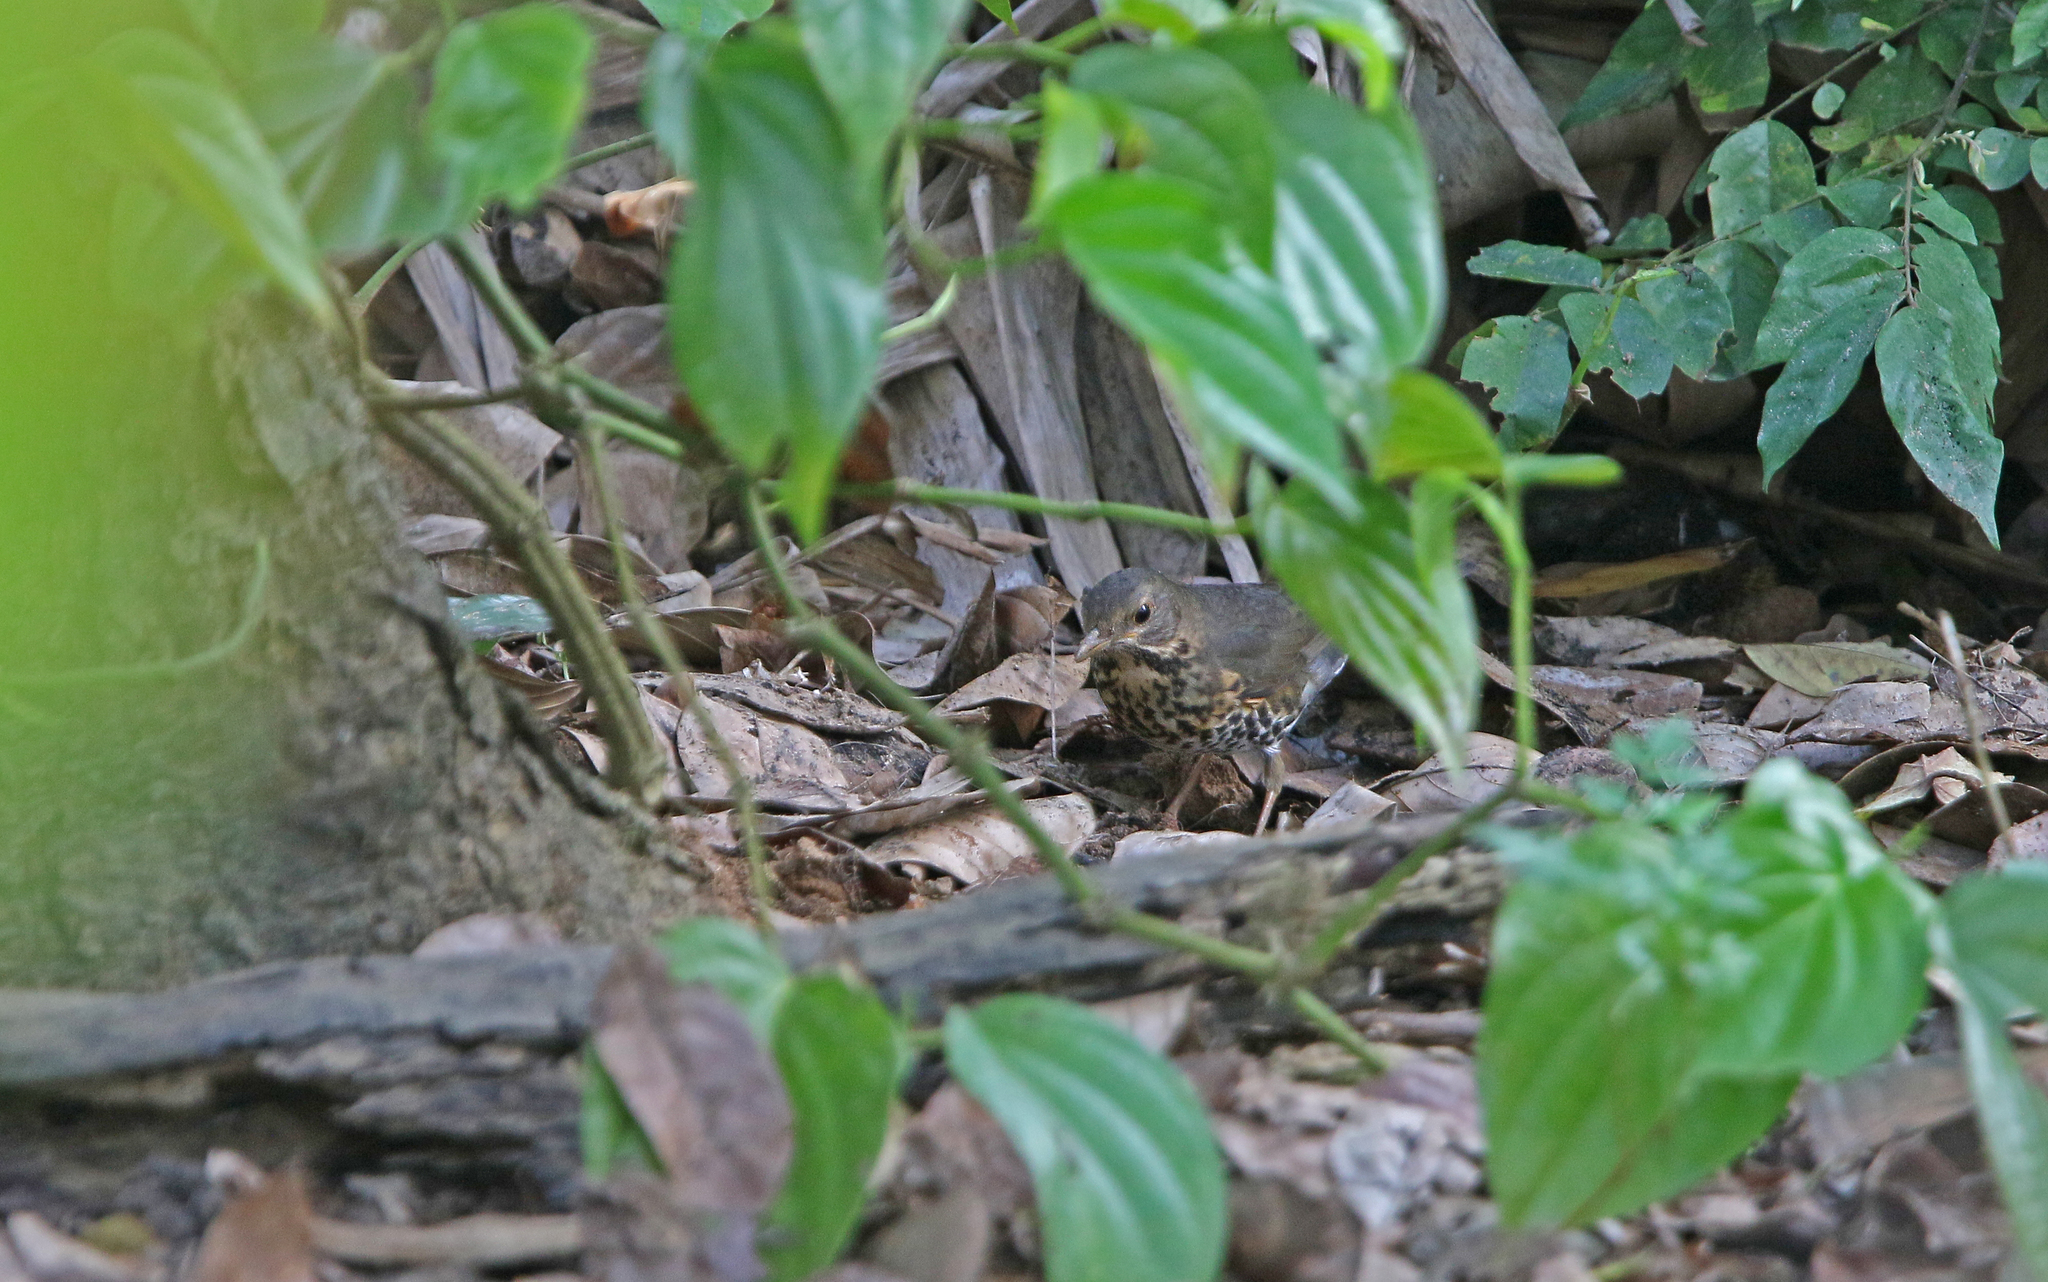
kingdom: Animalia
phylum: Chordata
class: Aves
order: Passeriformes
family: Turdidae
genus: Turdus
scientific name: Turdus cardis
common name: Japanese thrush
